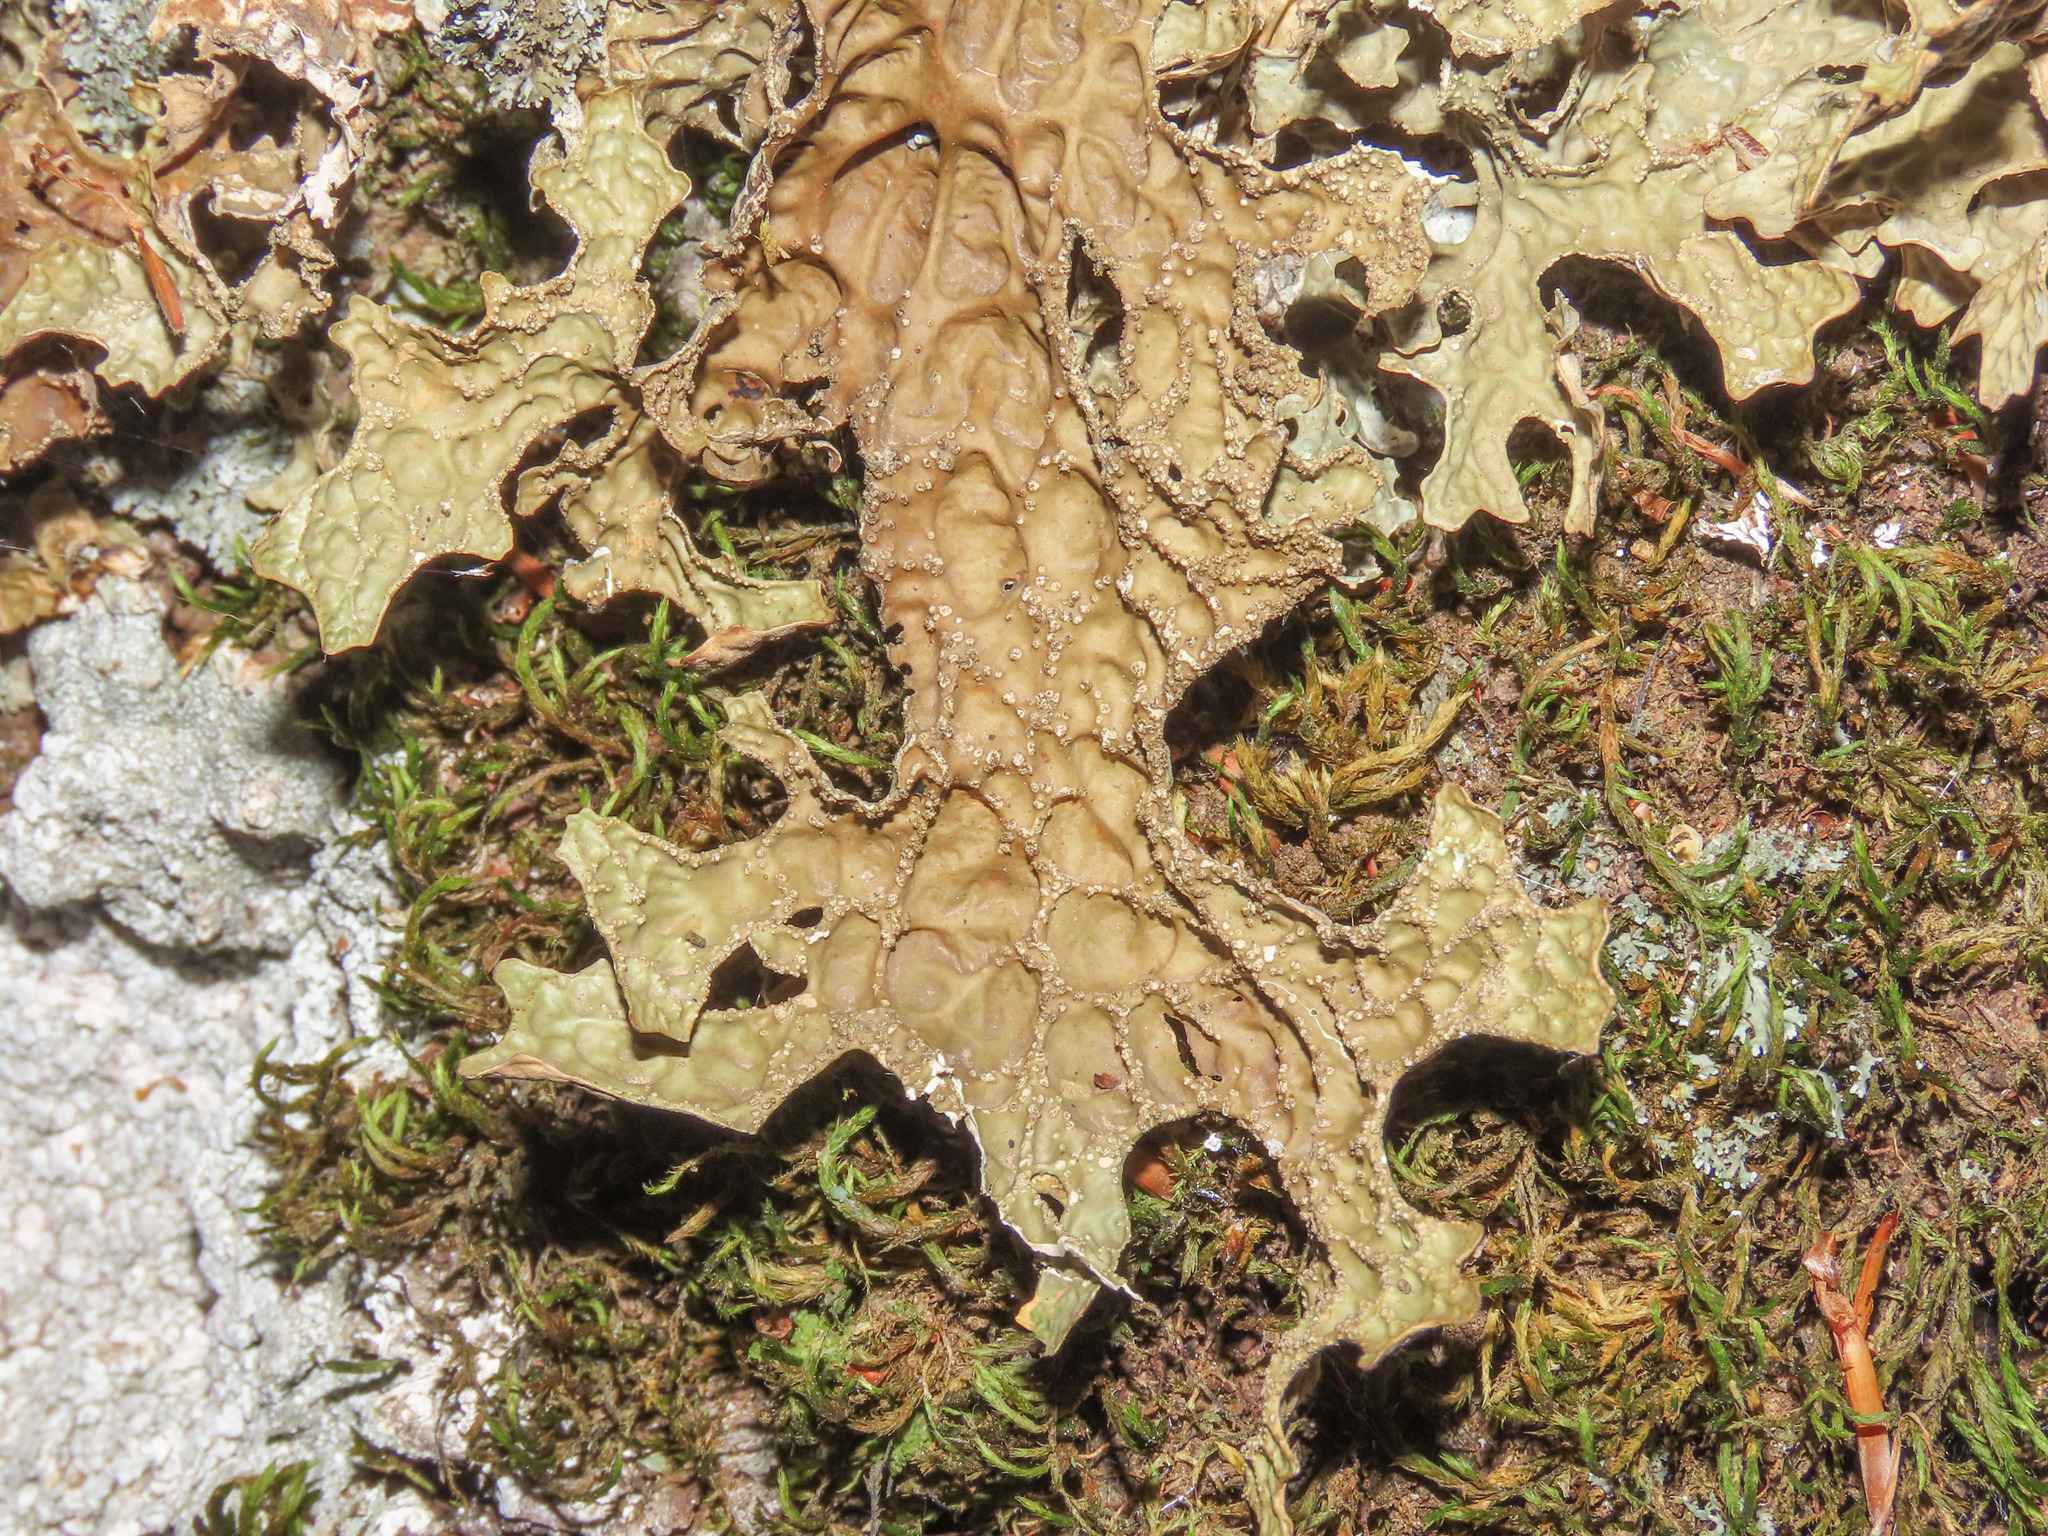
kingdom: Fungi
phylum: Ascomycota
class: Lecanoromycetes
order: Peltigerales
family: Lobariaceae
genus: Lobaria
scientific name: Lobaria pulmonaria
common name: Lungwort
